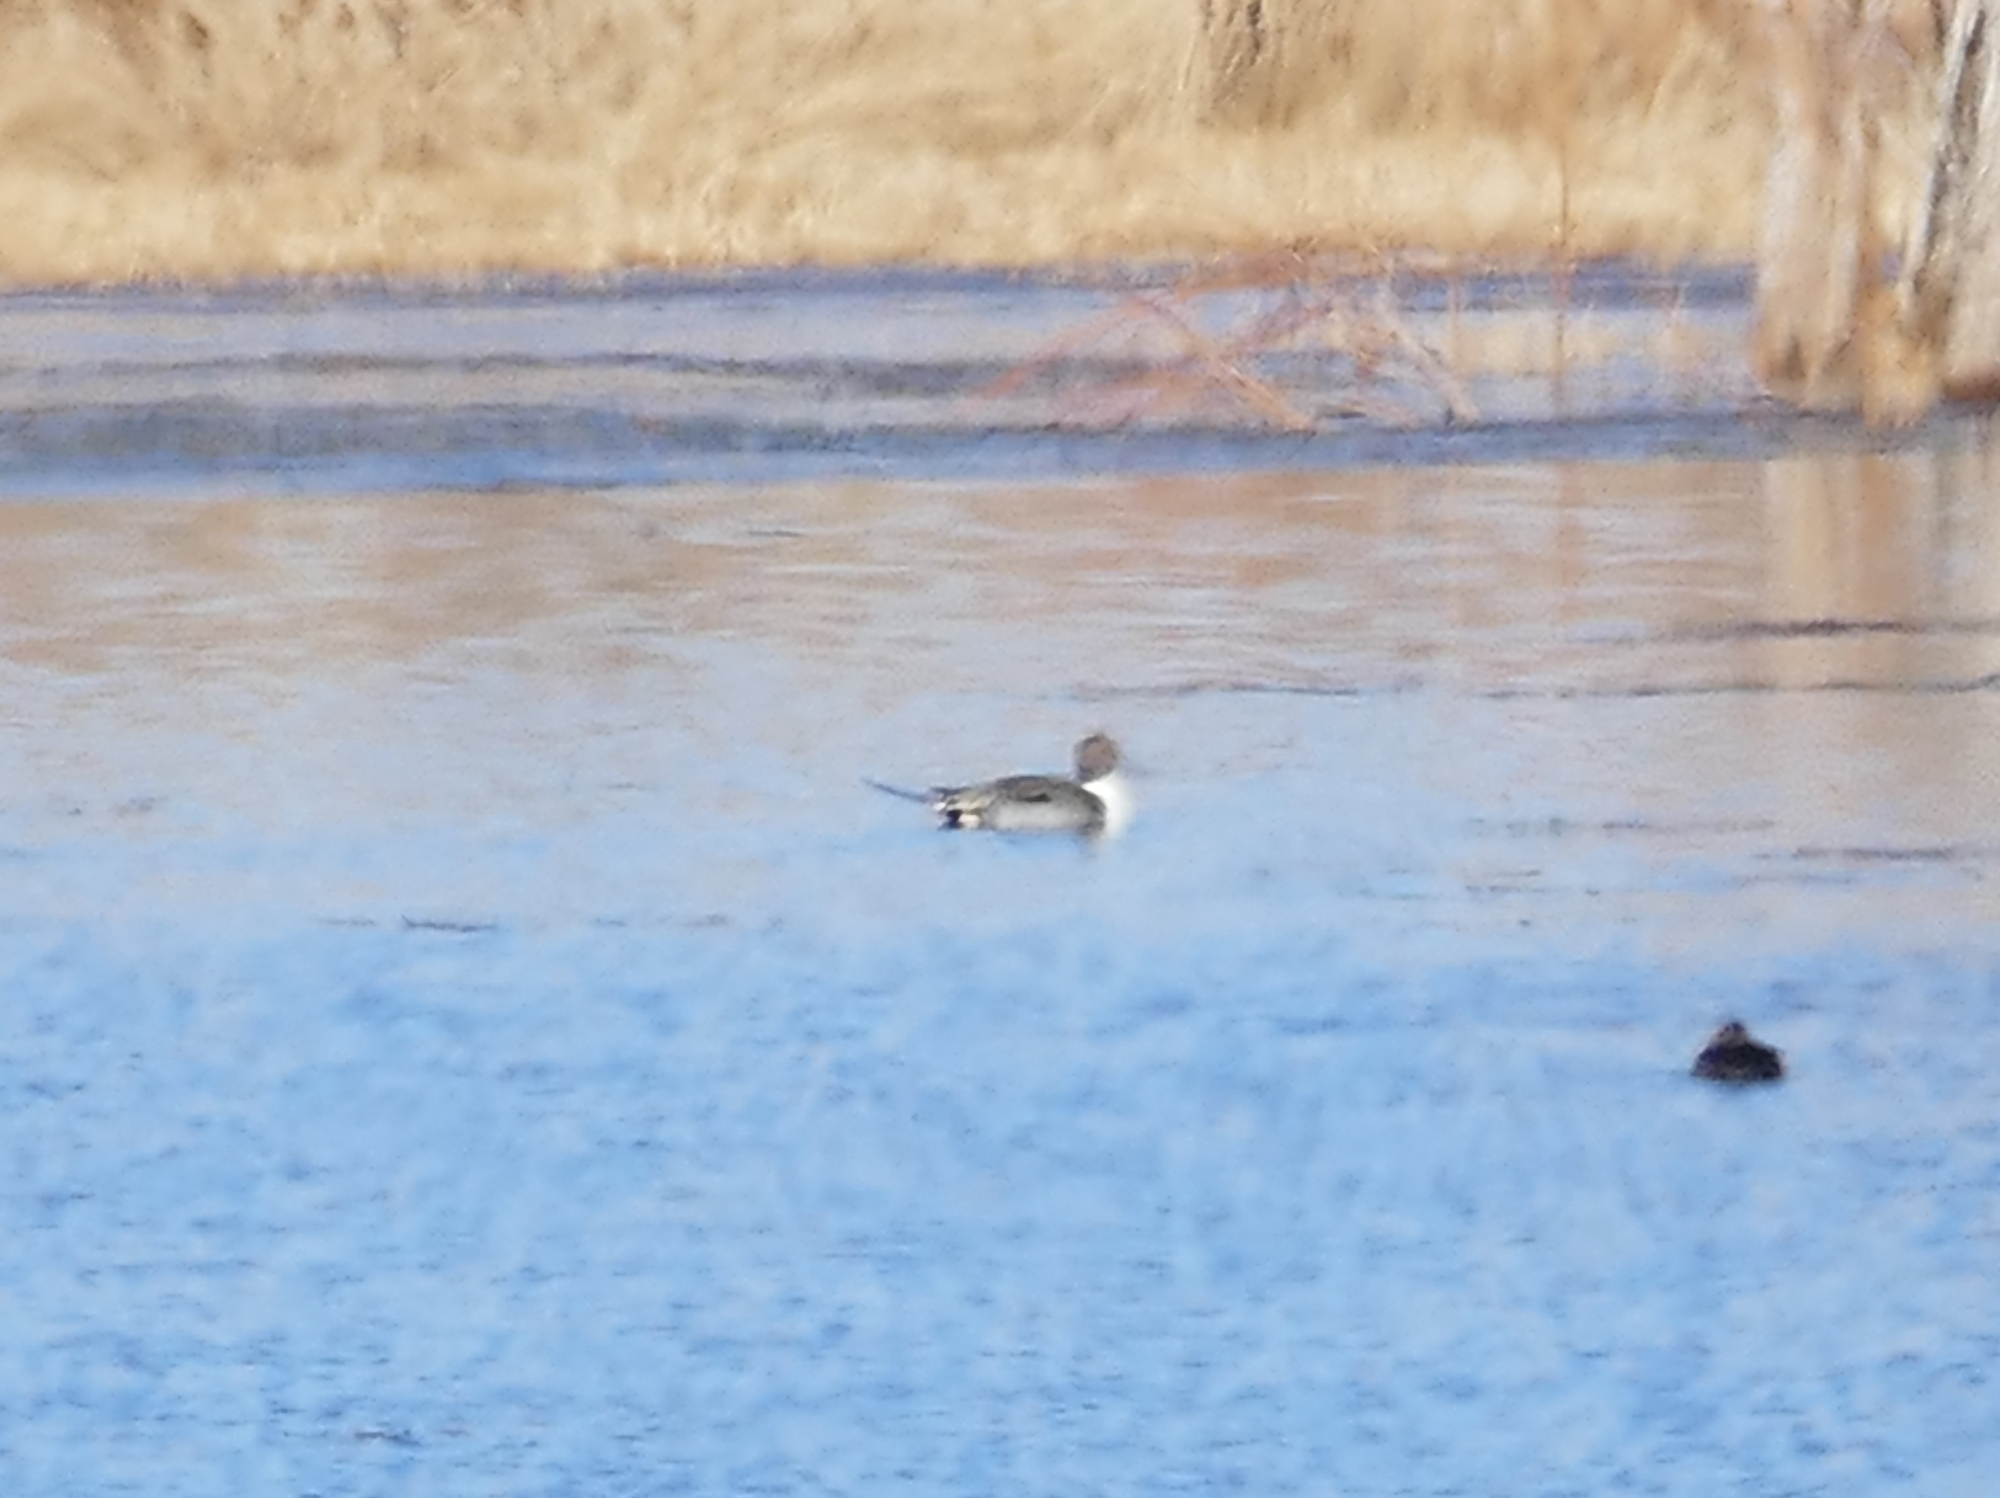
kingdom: Animalia
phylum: Chordata
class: Aves
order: Anseriformes
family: Anatidae
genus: Anas
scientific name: Anas acuta
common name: Northern pintail
